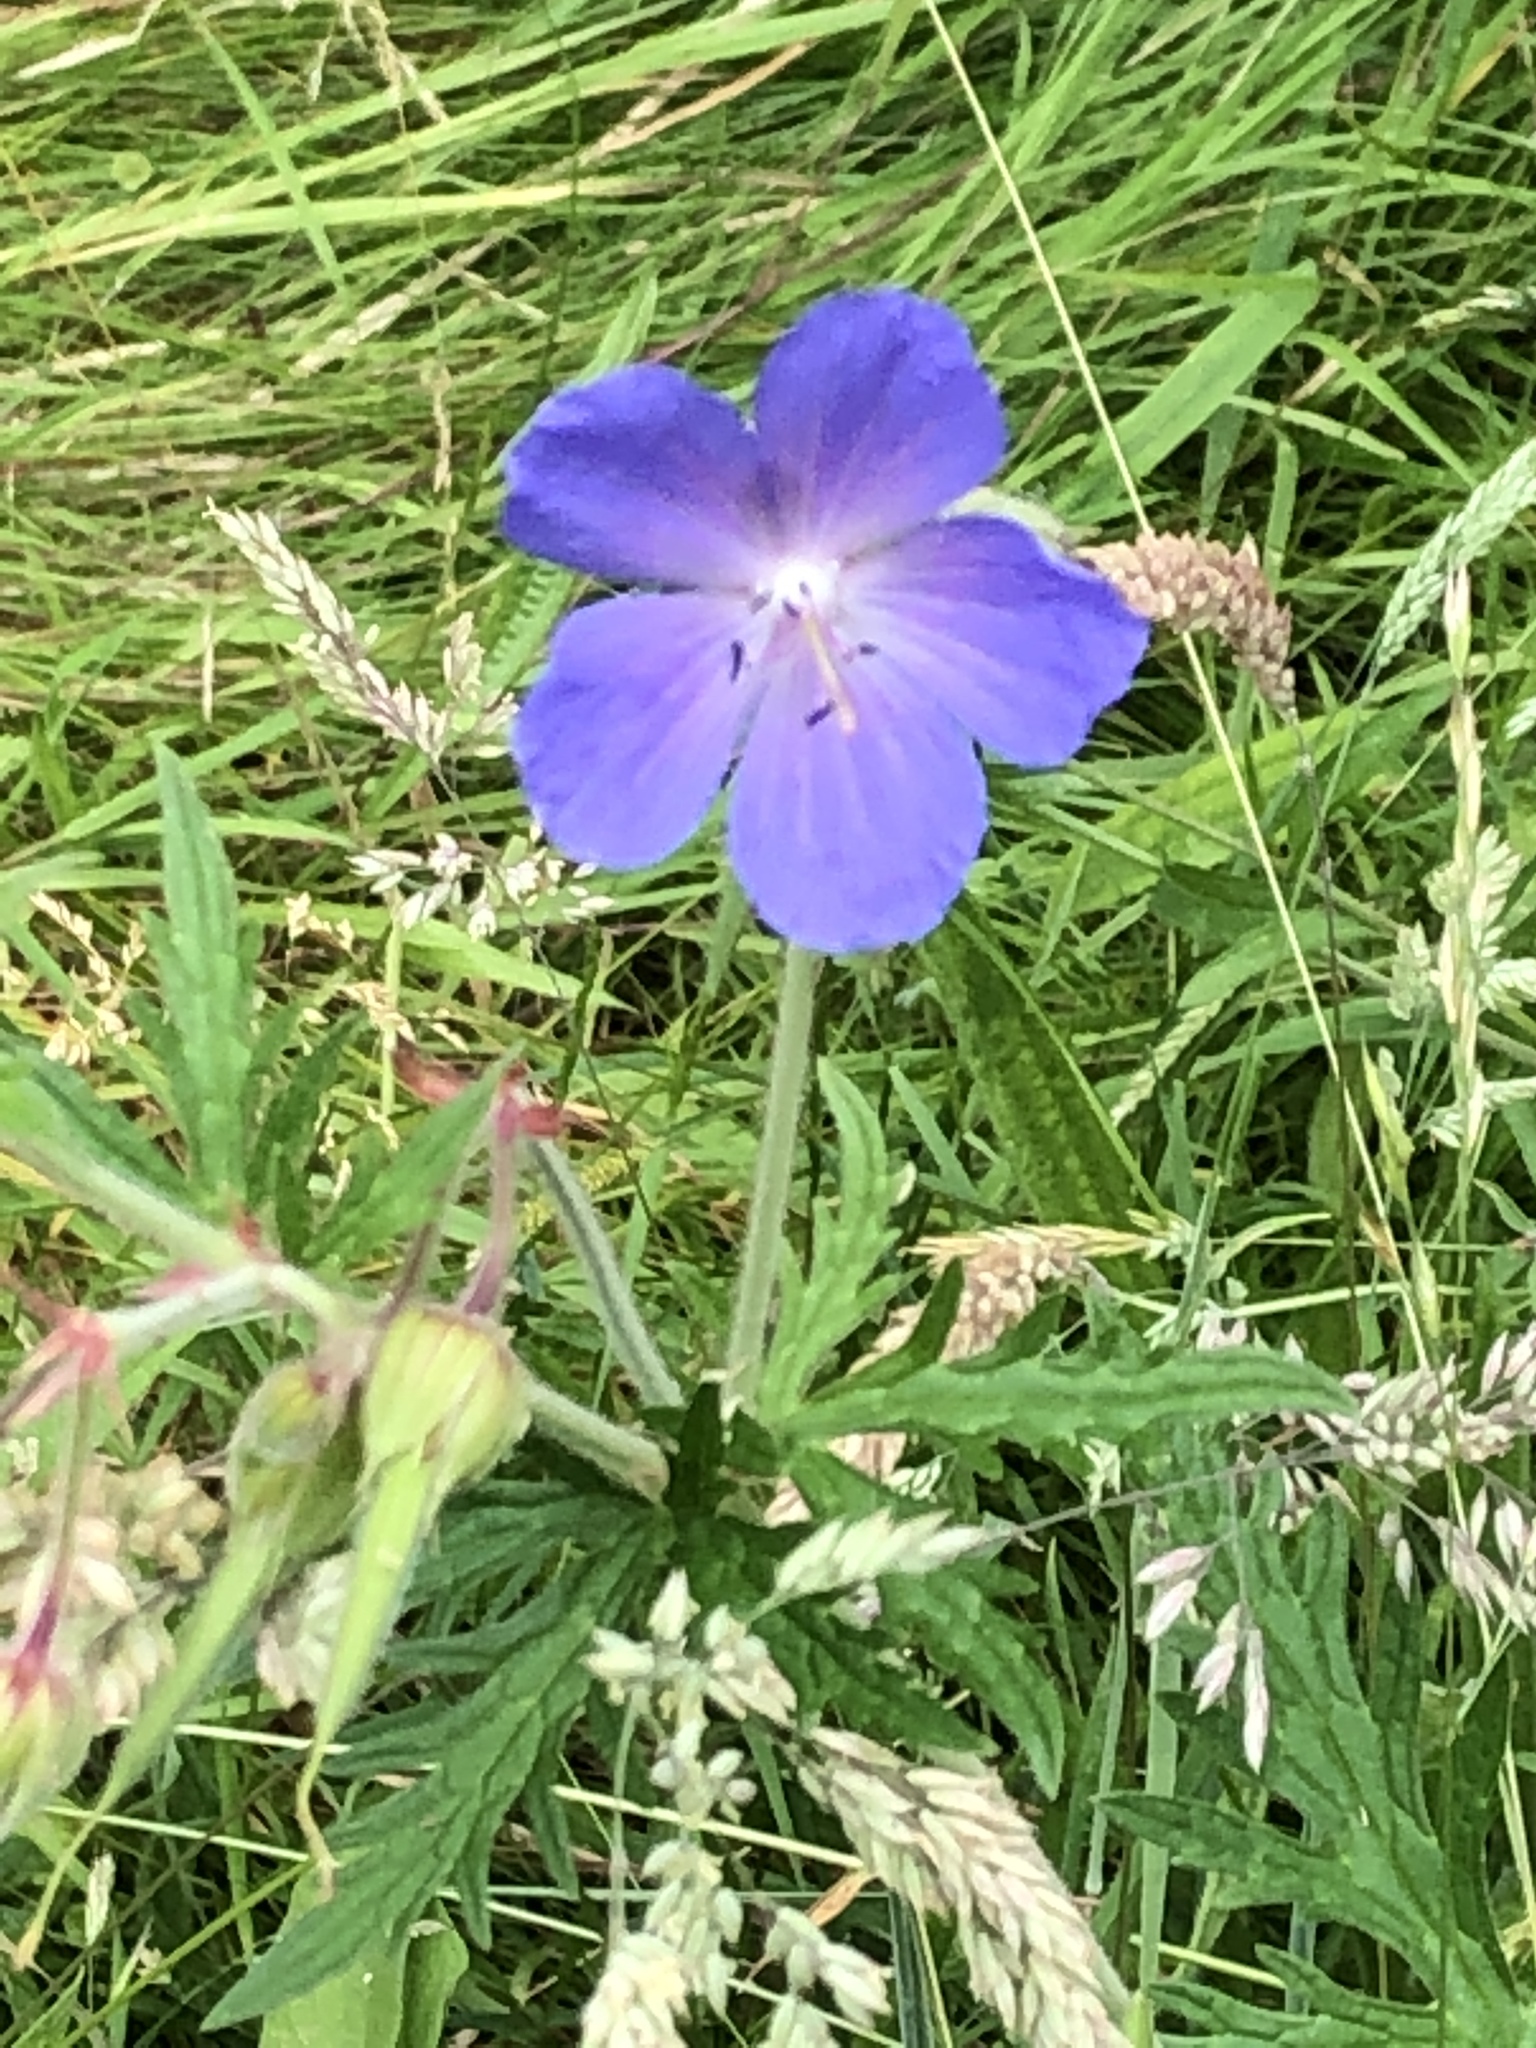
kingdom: Plantae
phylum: Tracheophyta
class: Magnoliopsida
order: Geraniales
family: Geraniaceae
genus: Geranium
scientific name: Geranium pratense
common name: Meadow crane's-bill
